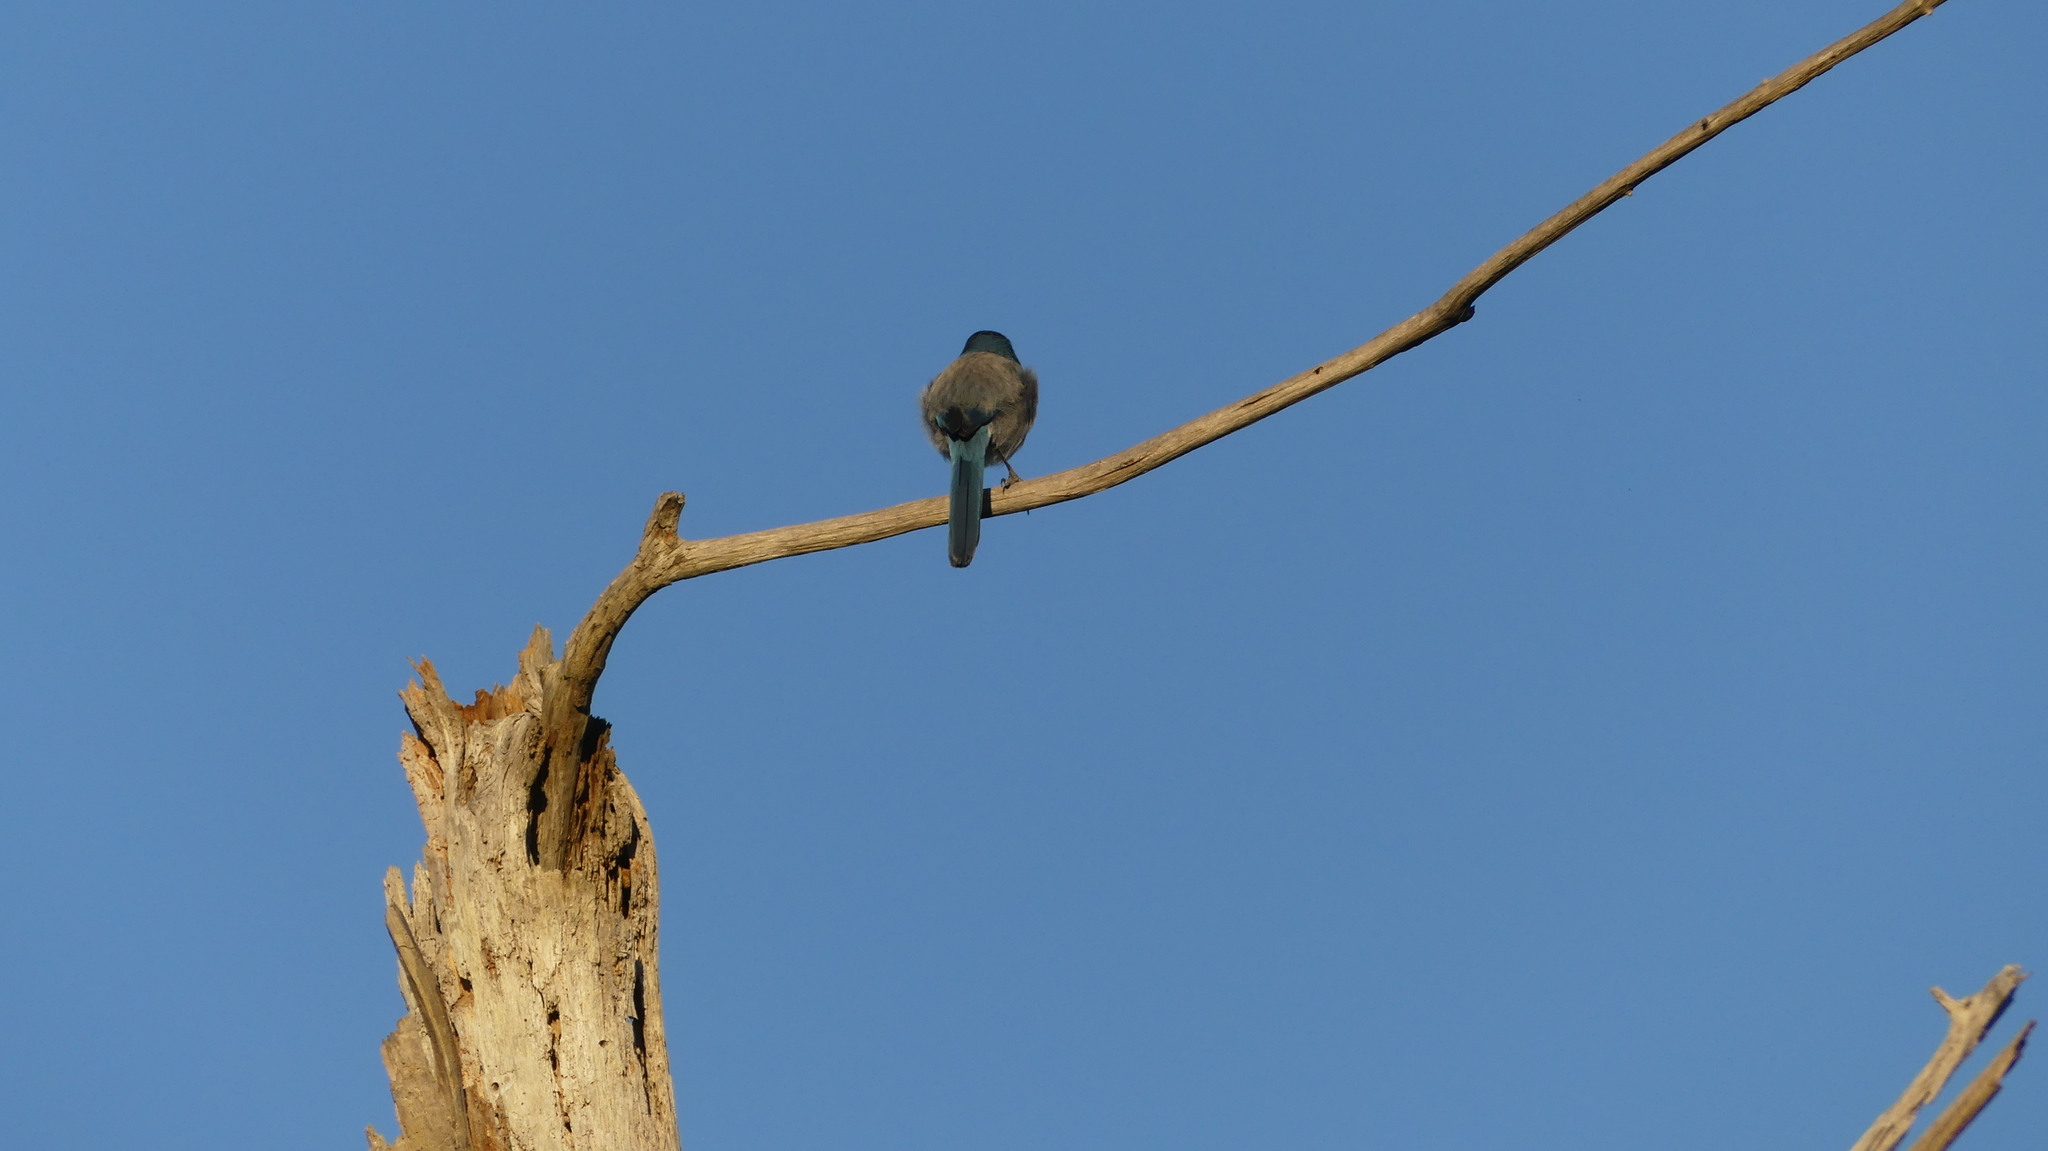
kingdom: Animalia
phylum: Chordata
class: Aves
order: Passeriformes
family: Corvidae
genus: Aphelocoma
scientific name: Aphelocoma coerulescens
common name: Florida scrub jay
